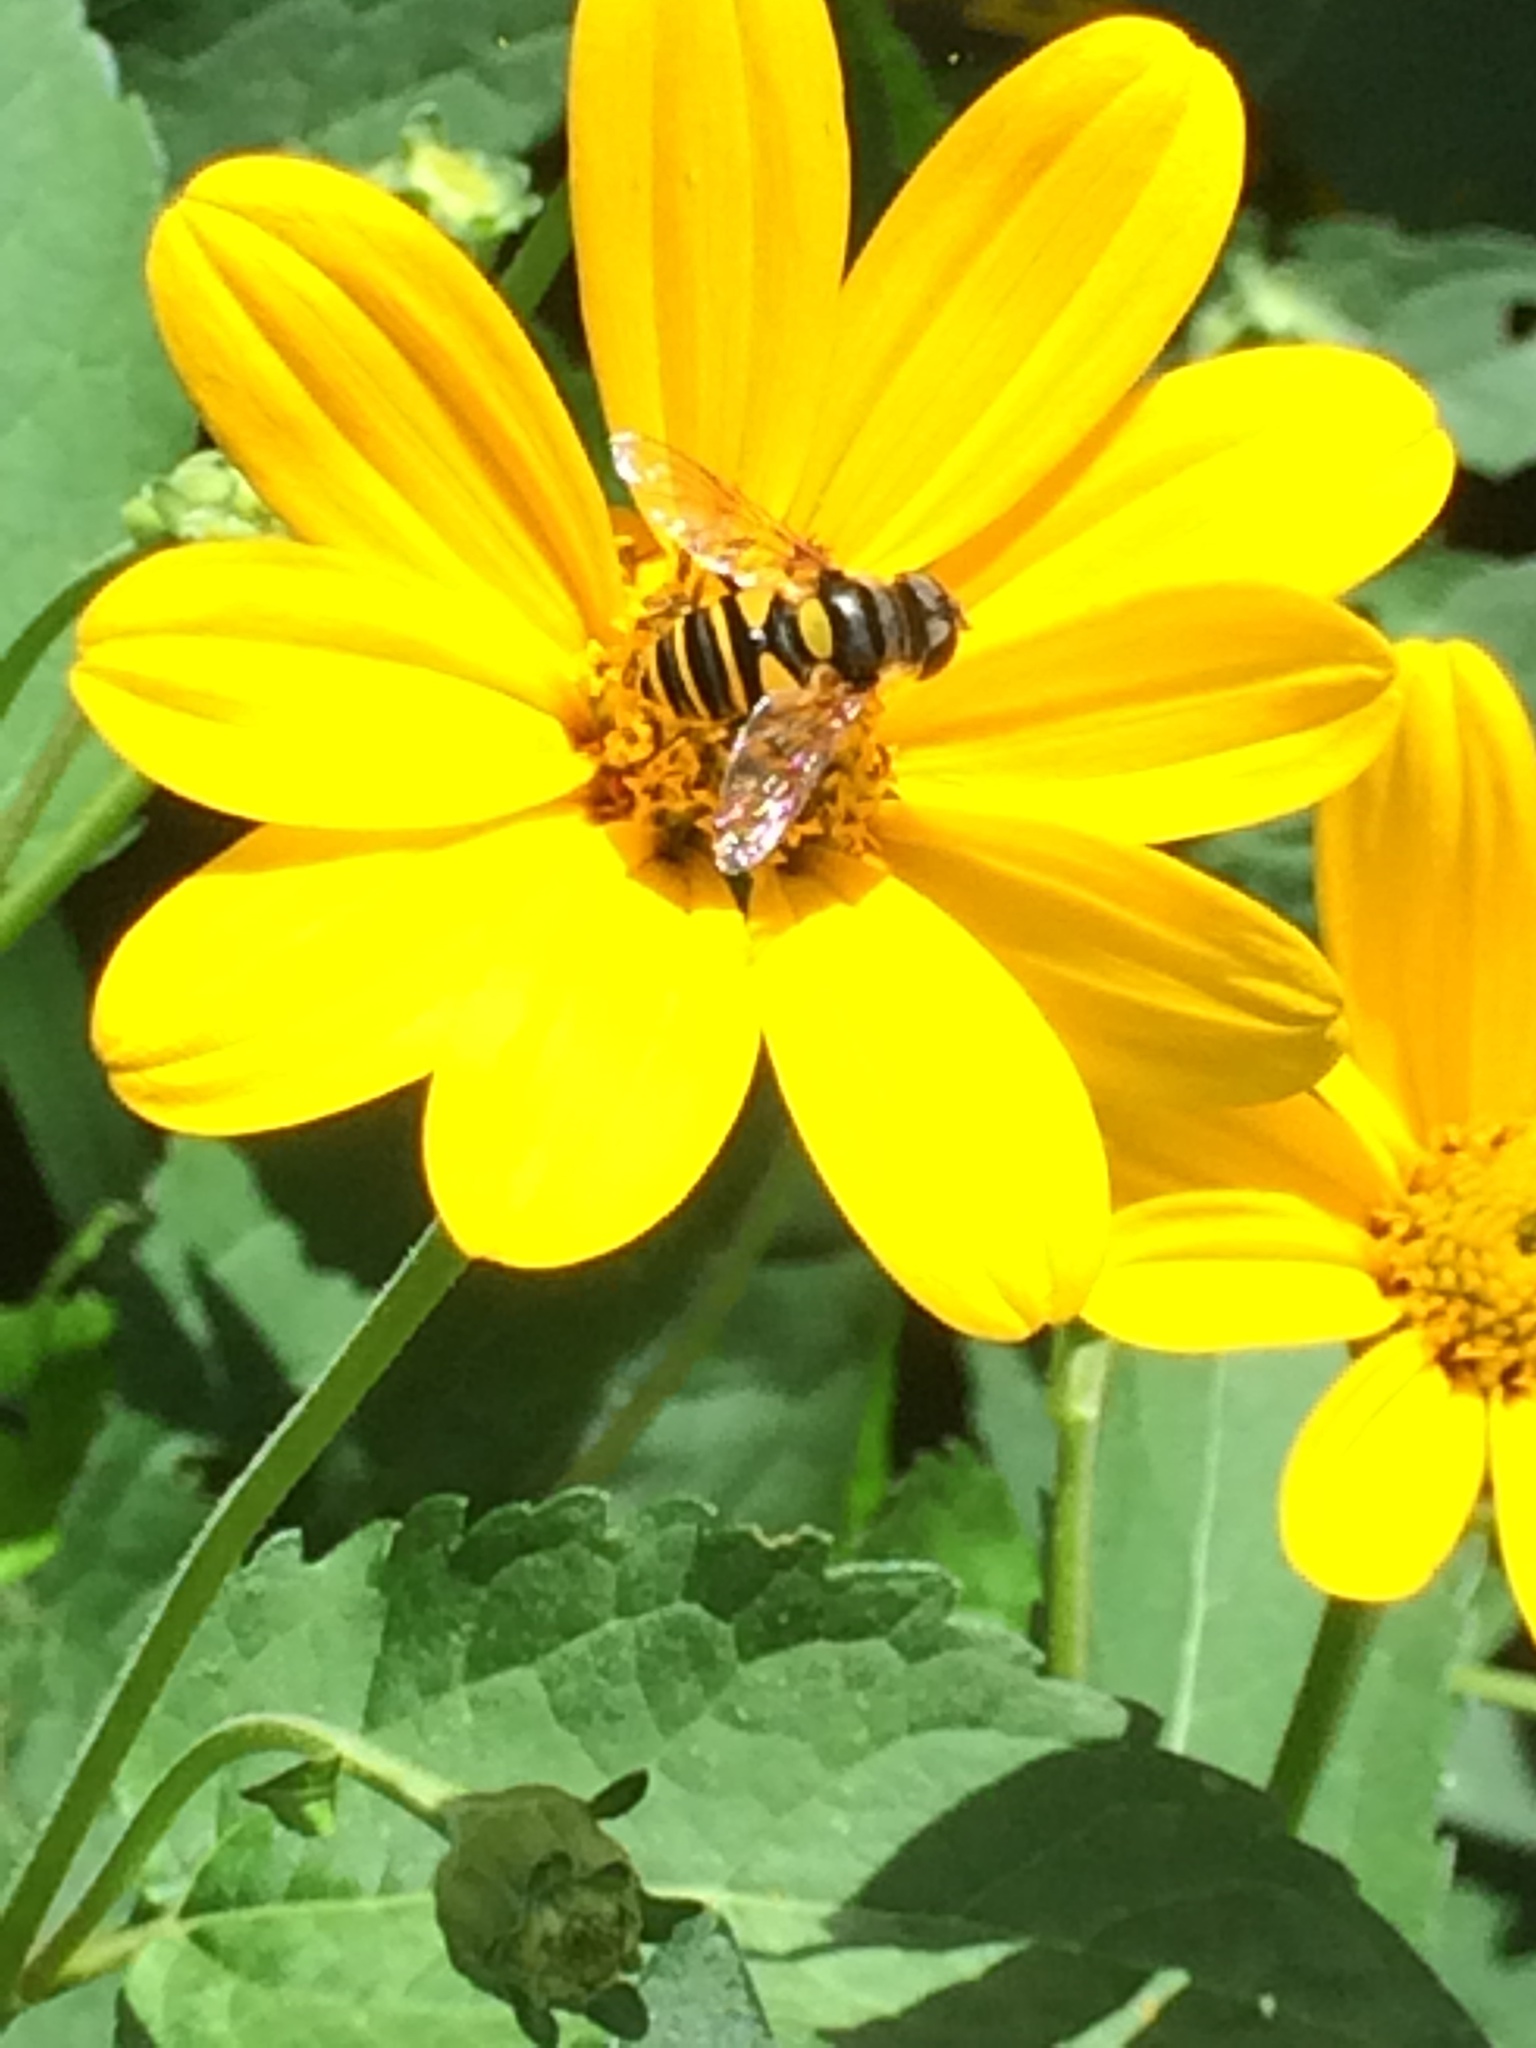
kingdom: Animalia
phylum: Arthropoda
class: Insecta
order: Diptera
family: Syrphidae
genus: Eristalis
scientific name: Eristalis transversa
